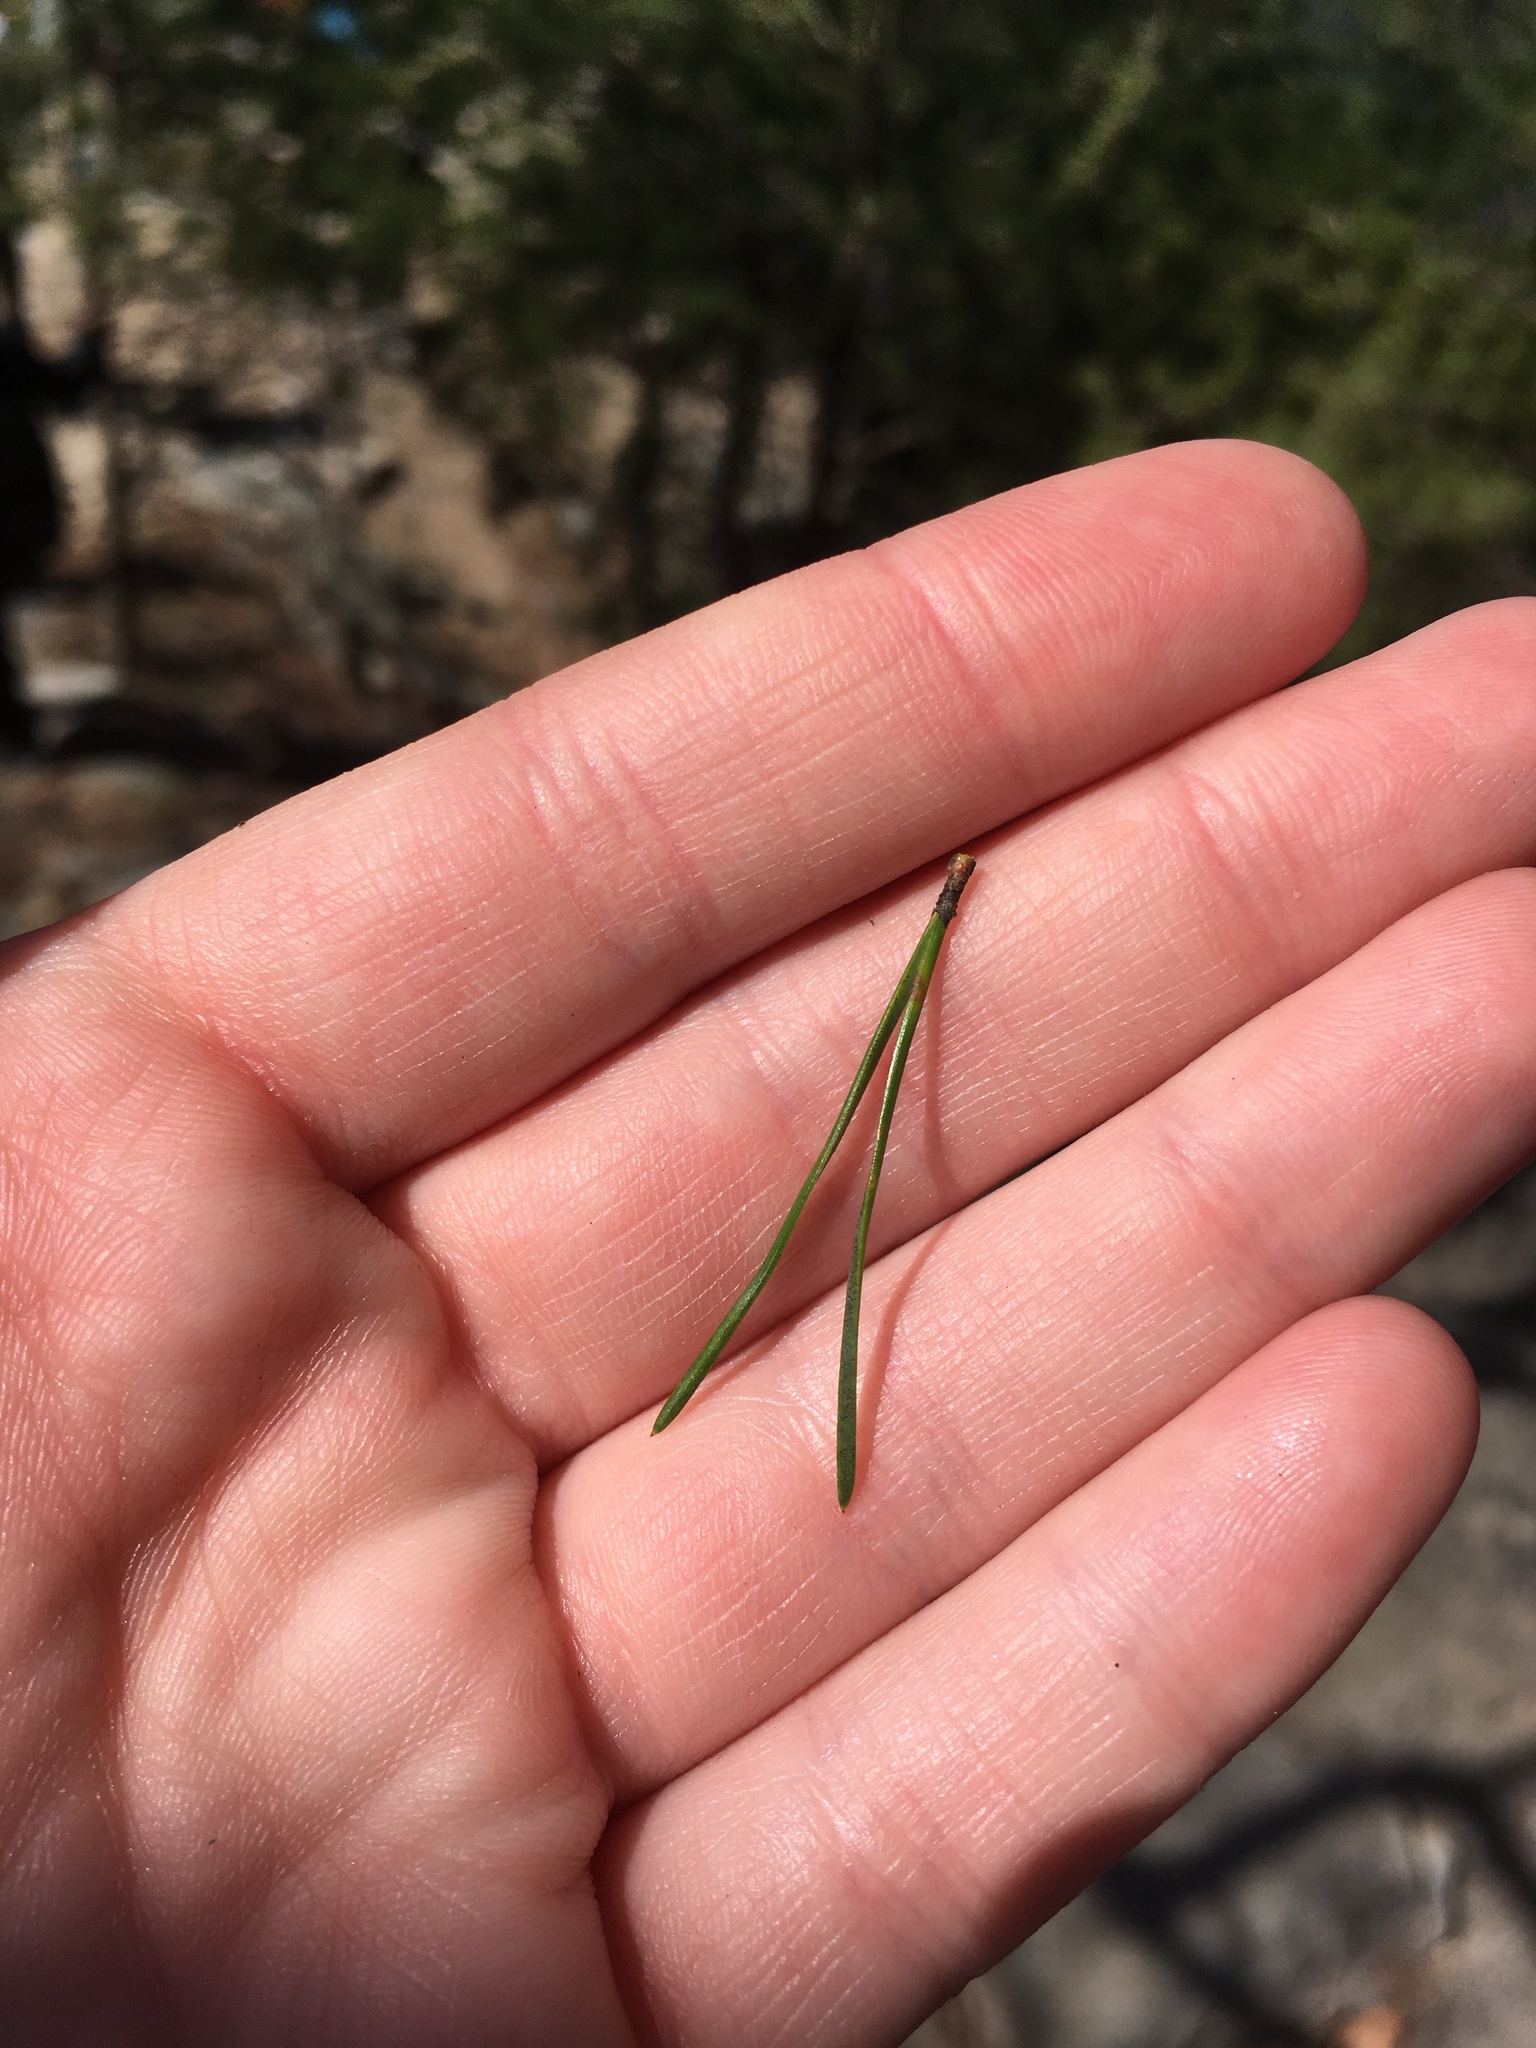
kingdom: Plantae
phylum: Tracheophyta
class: Pinopsida
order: Pinales
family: Pinaceae
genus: Pinus
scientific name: Pinus virginiana
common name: Scrub pine
